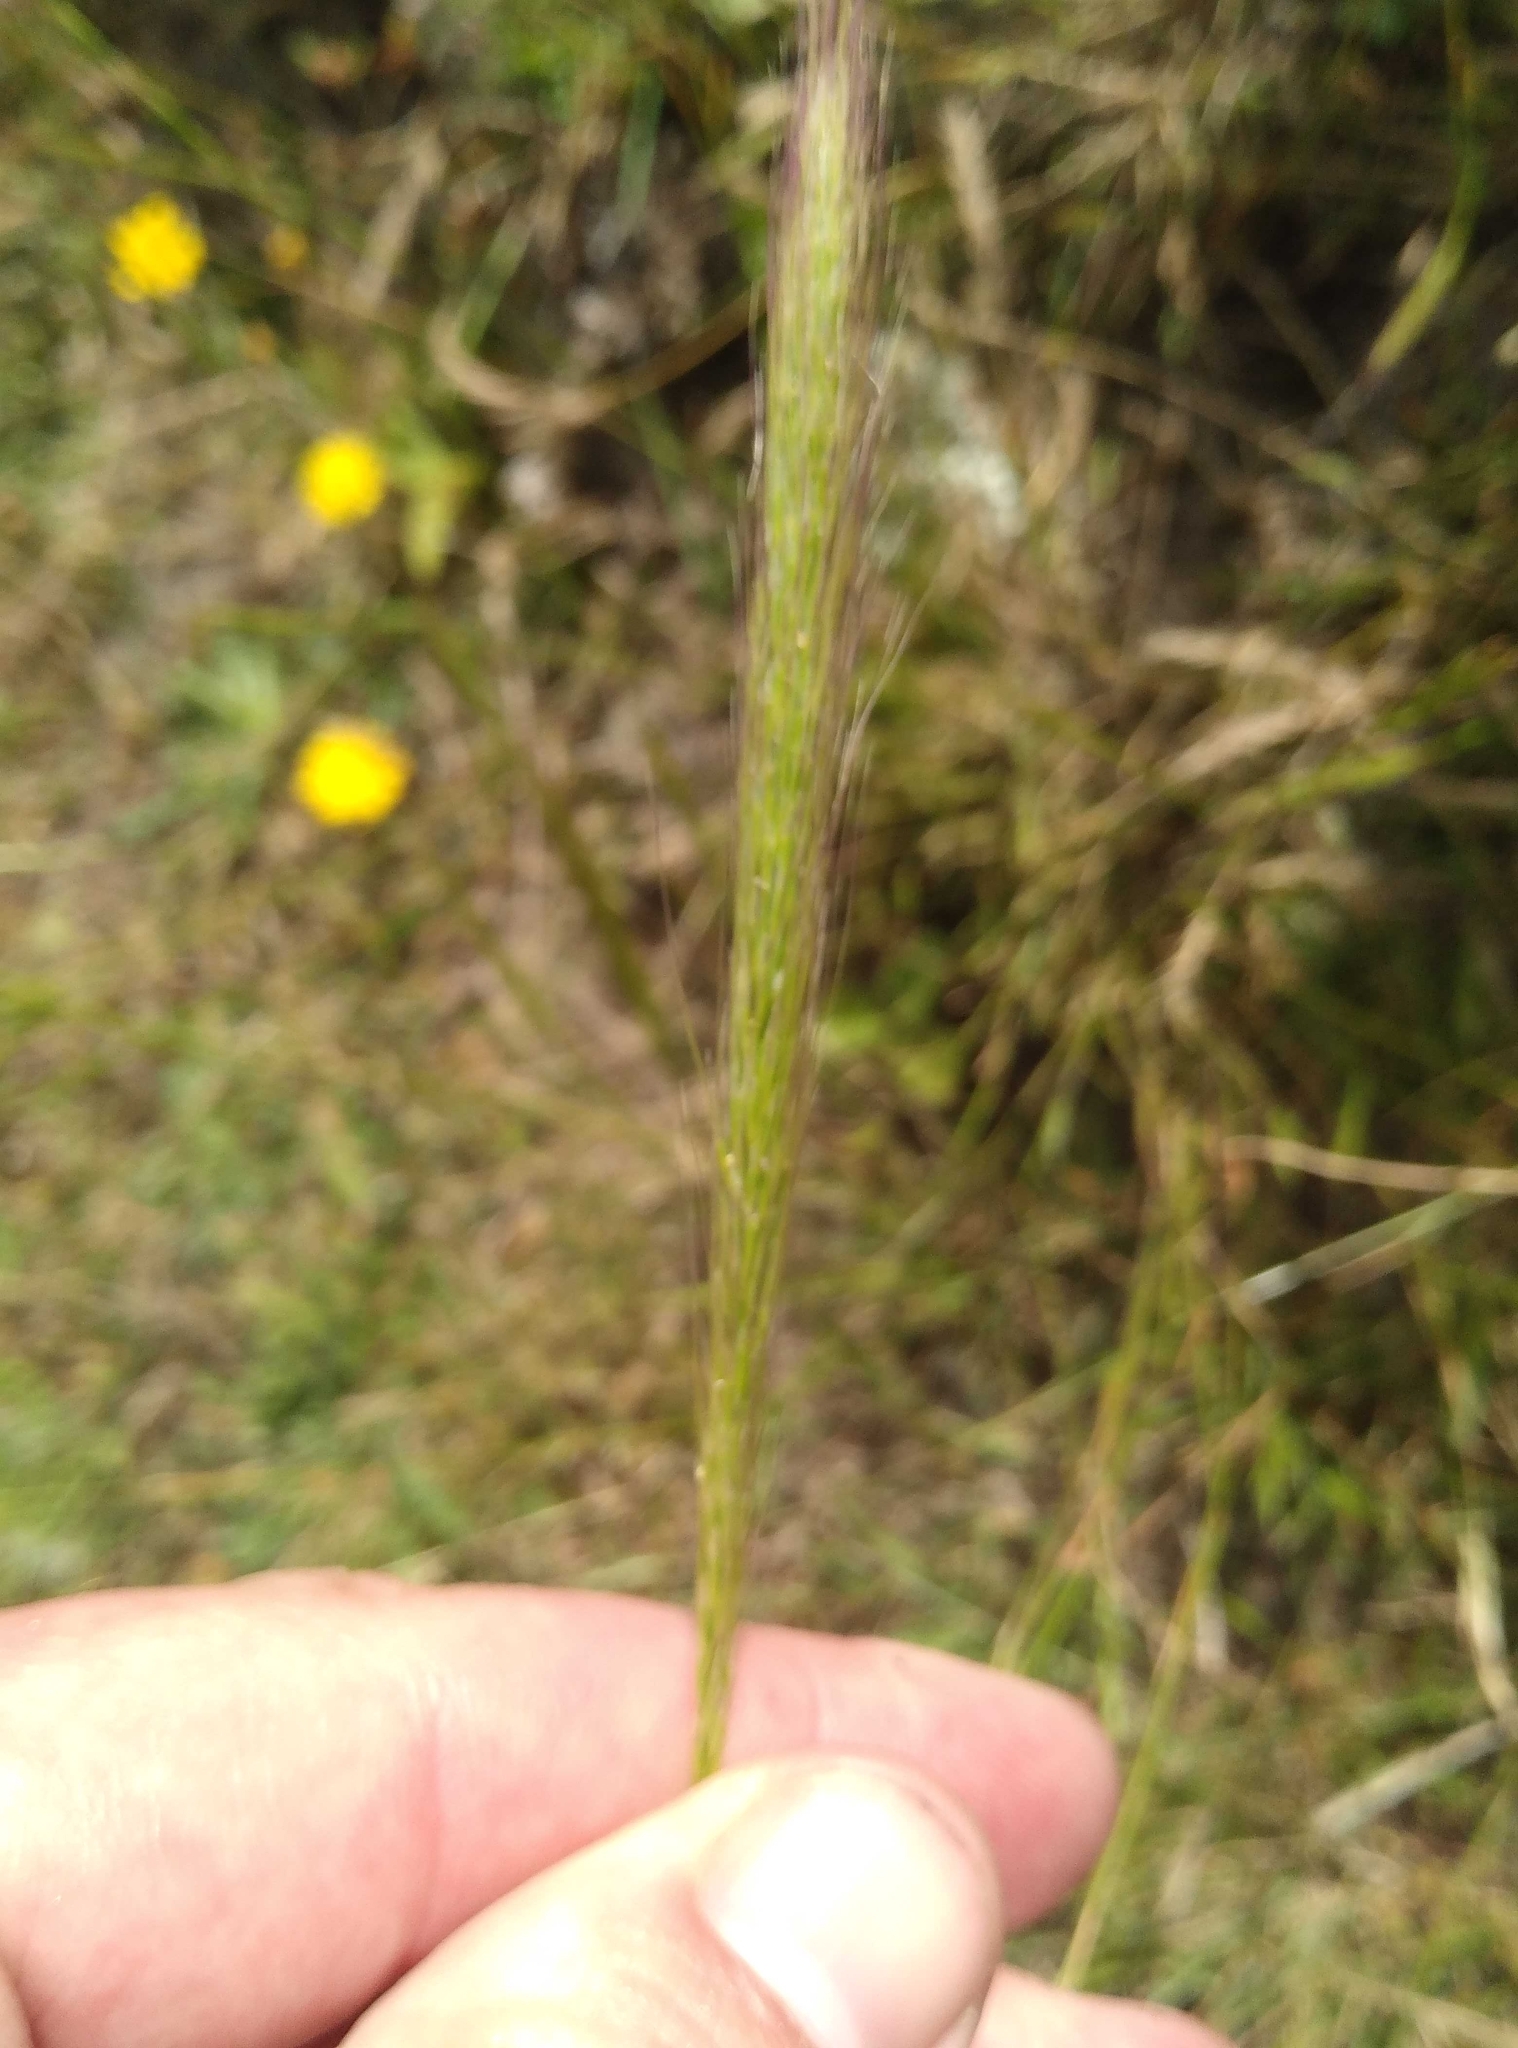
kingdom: Plantae
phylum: Tracheophyta
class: Liliopsida
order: Poales
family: Poaceae
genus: Dichelachne
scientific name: Dichelachne crinita
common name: Clovenfoot plumegrass
